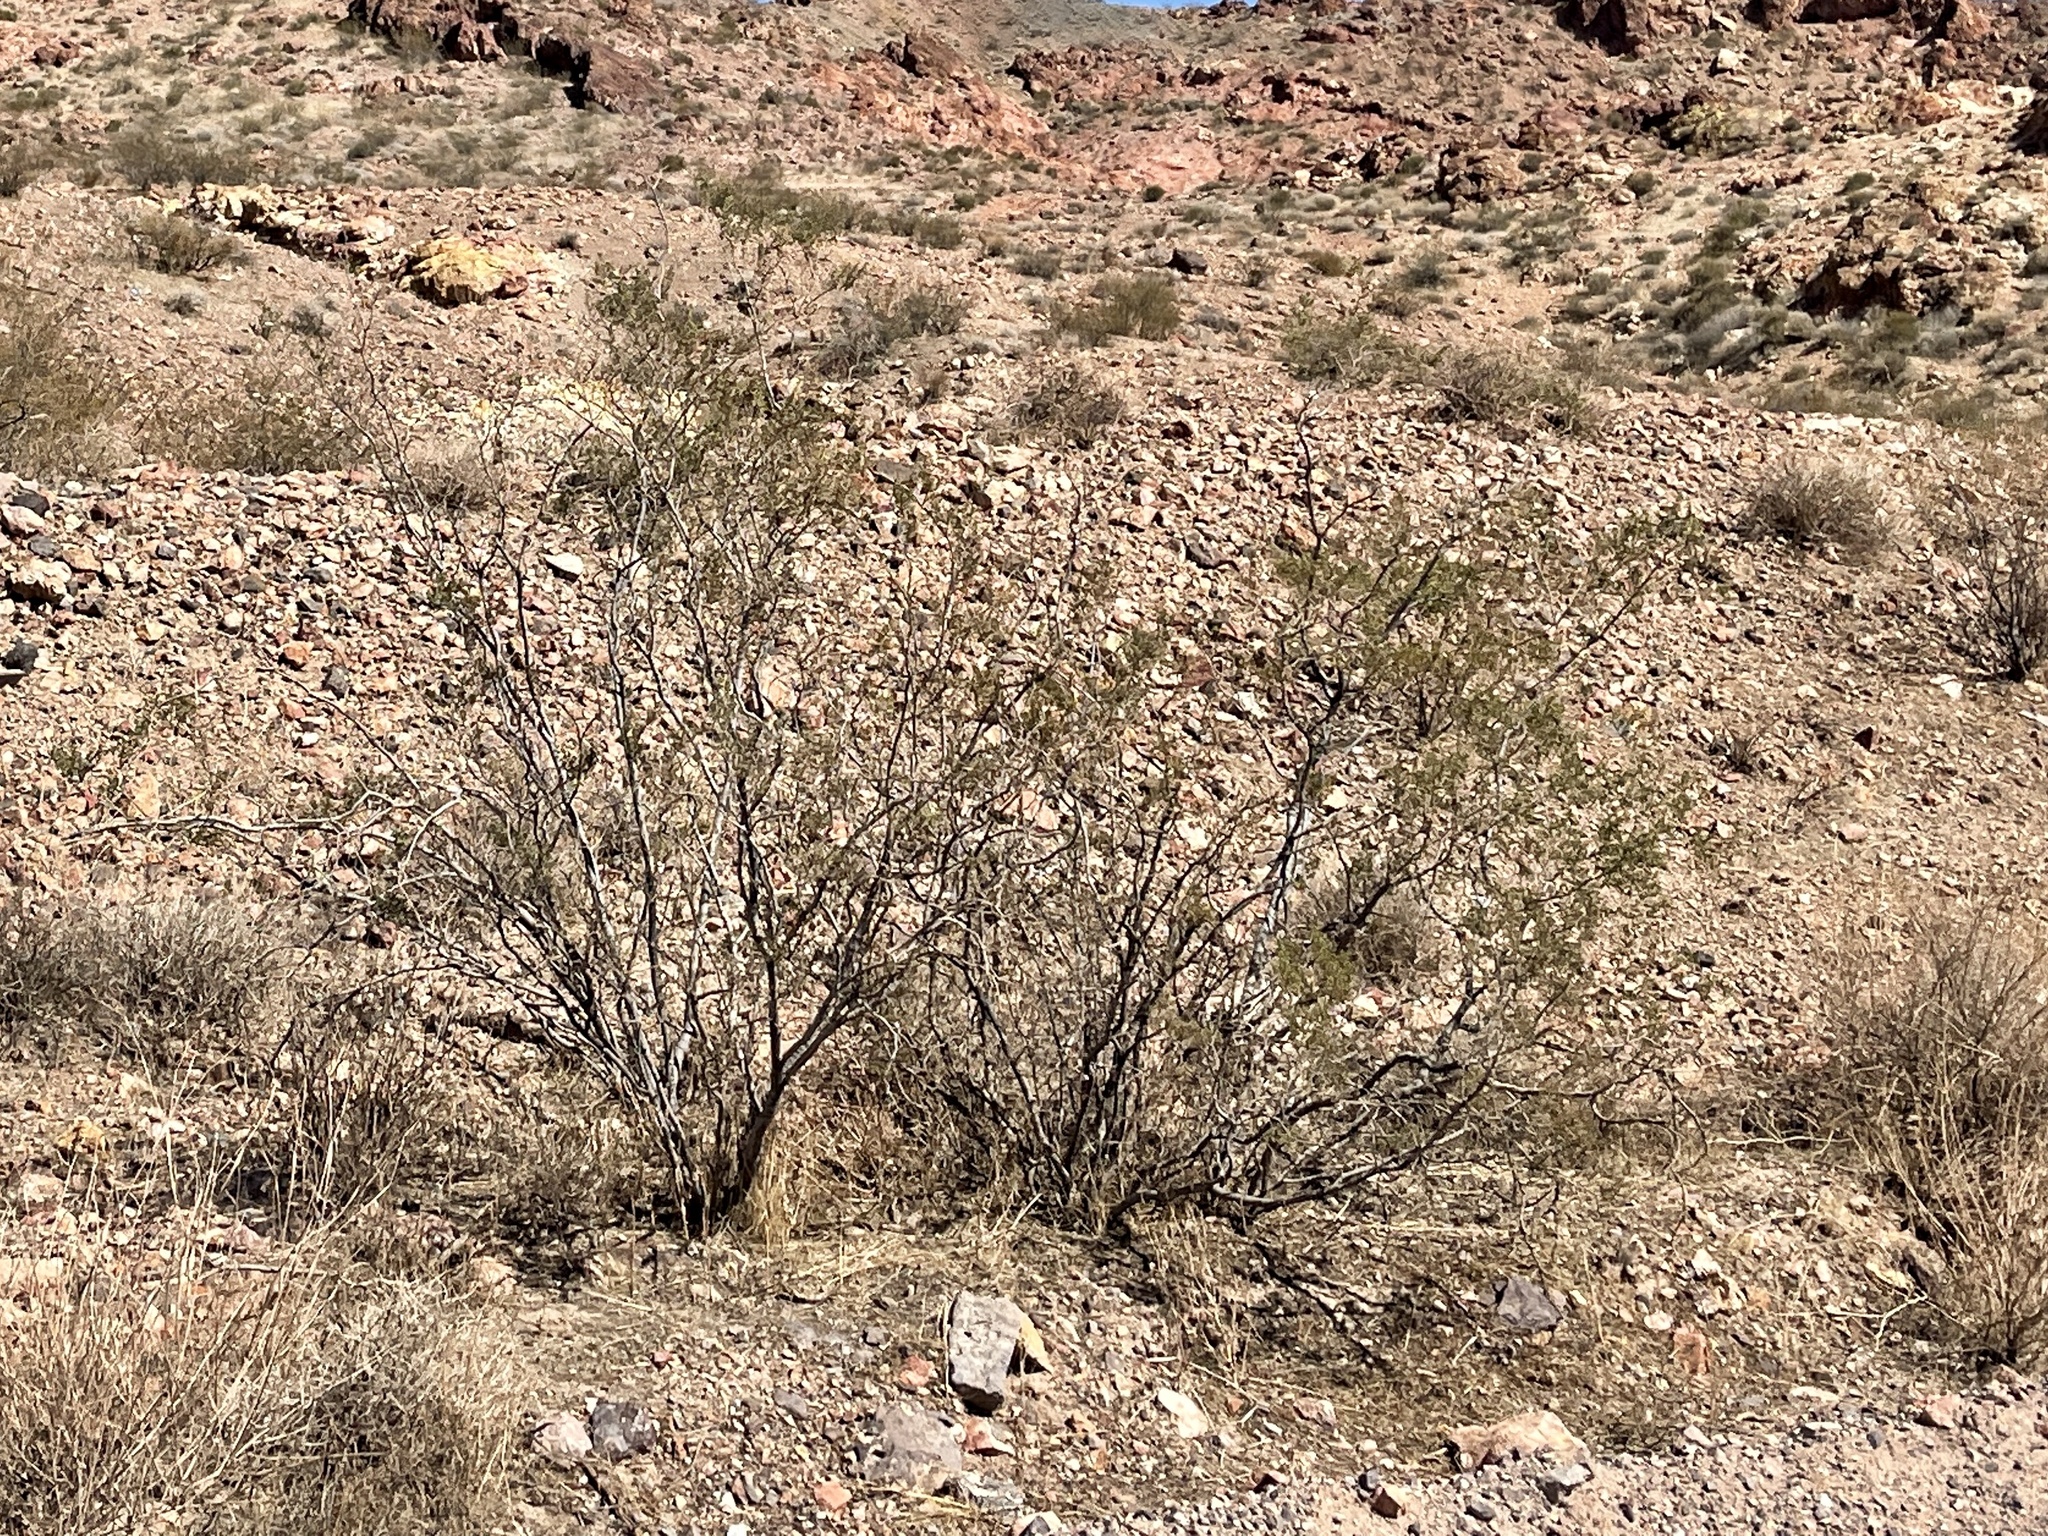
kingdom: Plantae
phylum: Tracheophyta
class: Magnoliopsida
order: Zygophyllales
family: Zygophyllaceae
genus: Larrea
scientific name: Larrea tridentata
